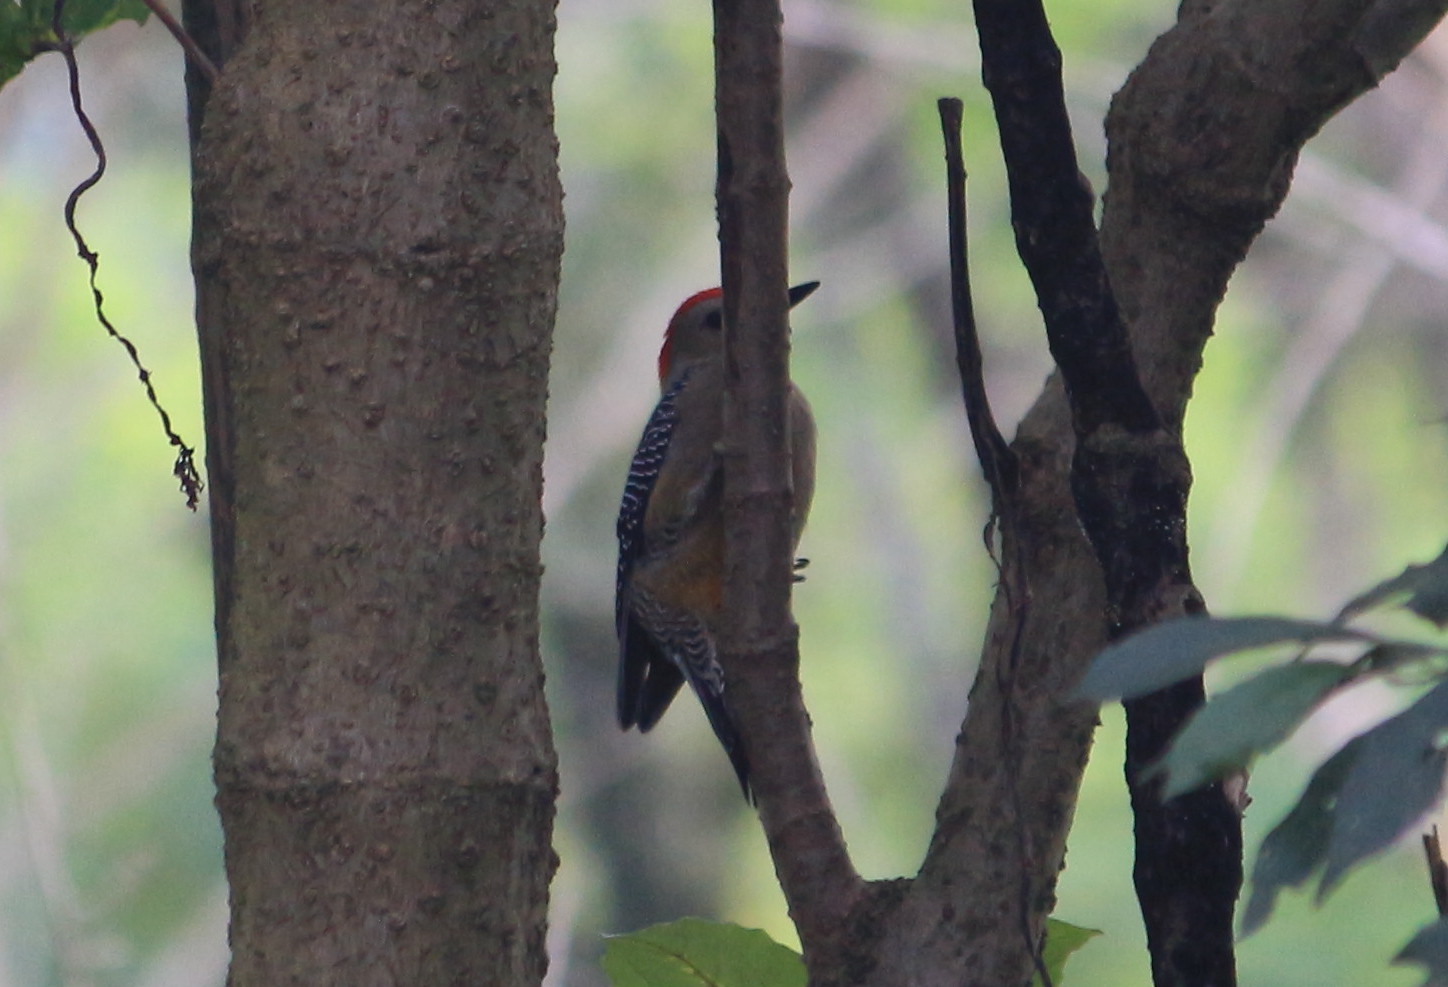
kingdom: Animalia
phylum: Chordata
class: Aves
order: Piciformes
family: Picidae
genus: Melanerpes
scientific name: Melanerpes aurifrons
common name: Golden-fronted woodpecker
